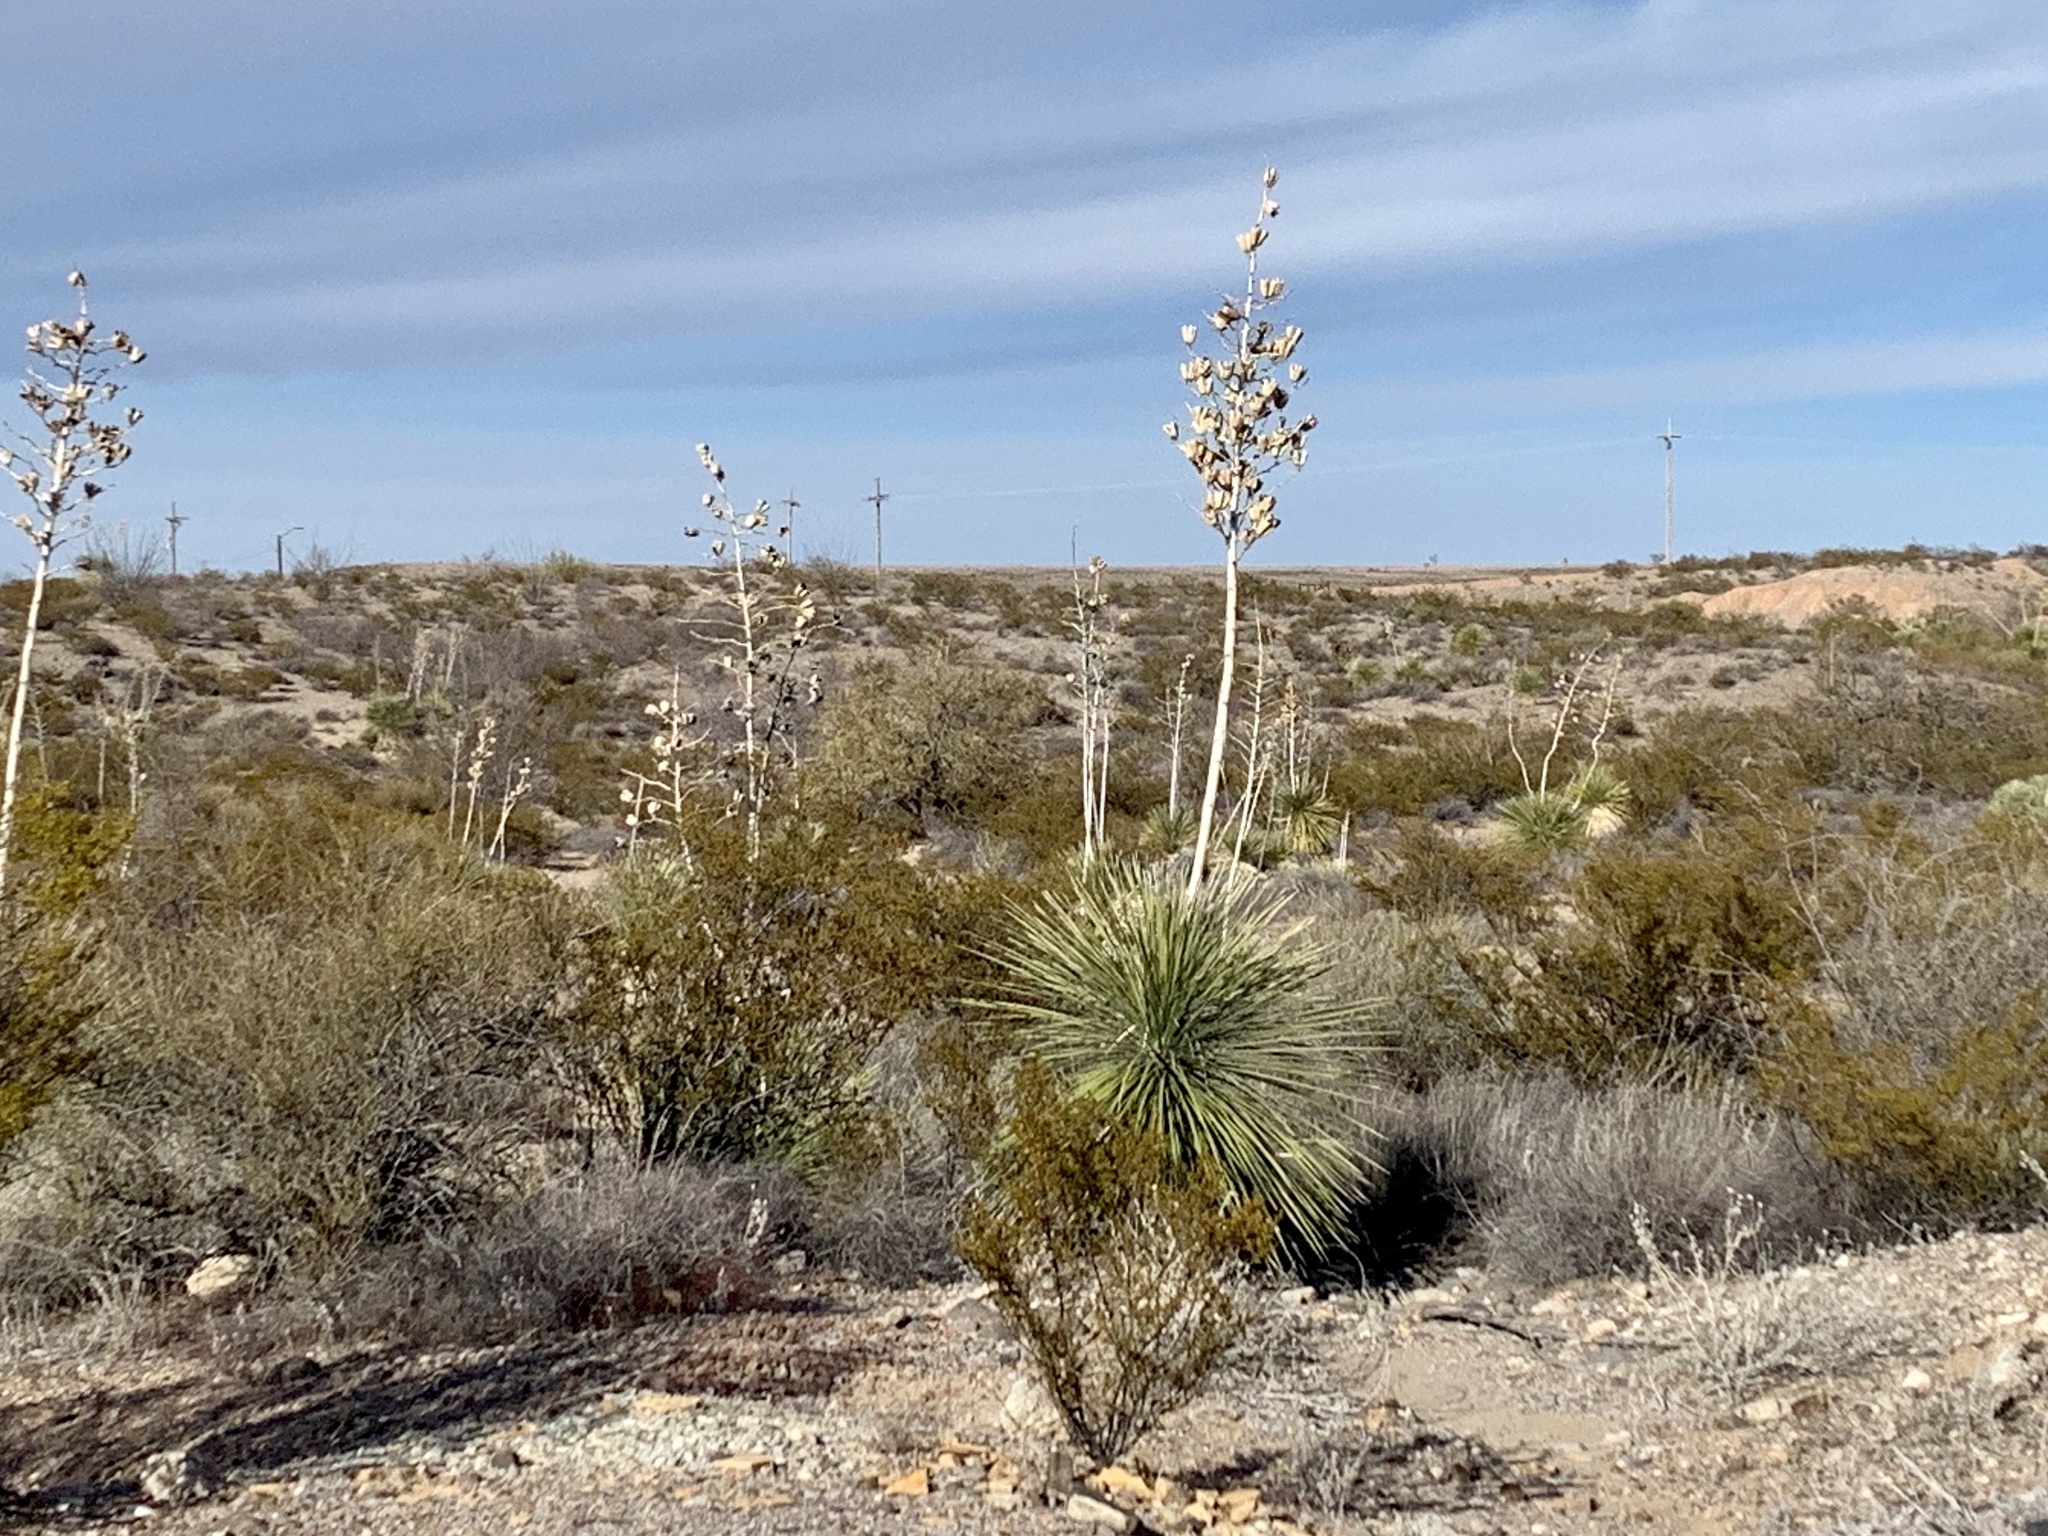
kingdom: Plantae
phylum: Tracheophyta
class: Liliopsida
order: Asparagales
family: Asparagaceae
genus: Yucca
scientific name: Yucca elata
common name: Palmella
